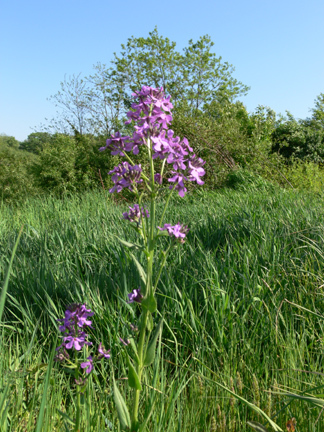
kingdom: Plantae
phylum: Tracheophyta
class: Magnoliopsida
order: Brassicales
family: Brassicaceae
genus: Hesperis
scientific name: Hesperis matronalis
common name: Dame's-violet
